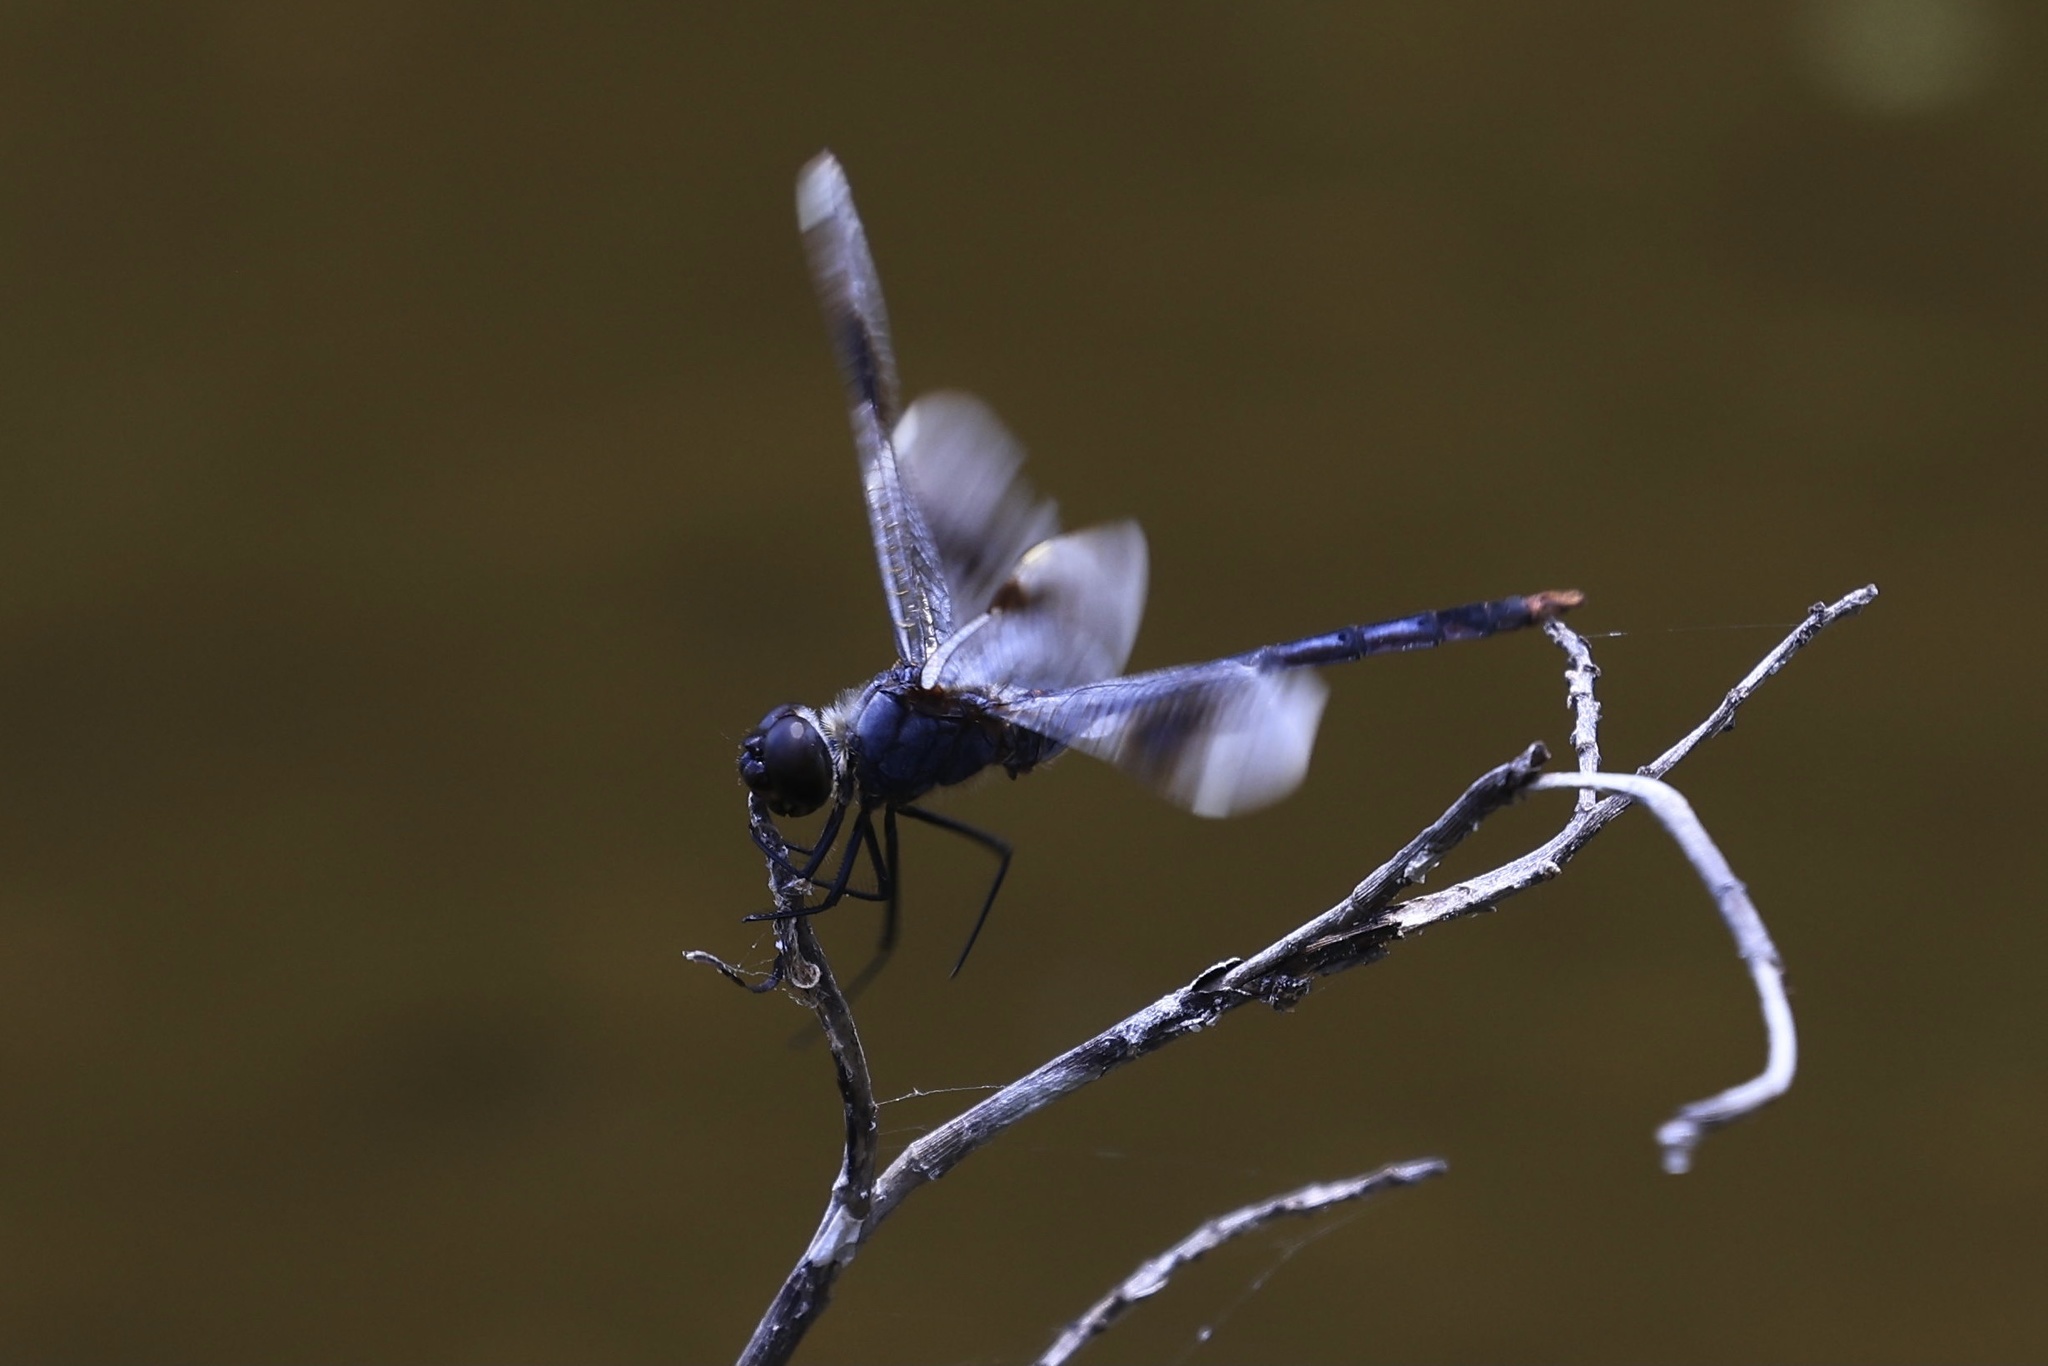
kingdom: Animalia
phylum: Arthropoda
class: Insecta
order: Odonata
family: Libellulidae
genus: Brachymesia
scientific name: Brachymesia gravida
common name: Four-spotted pennant
